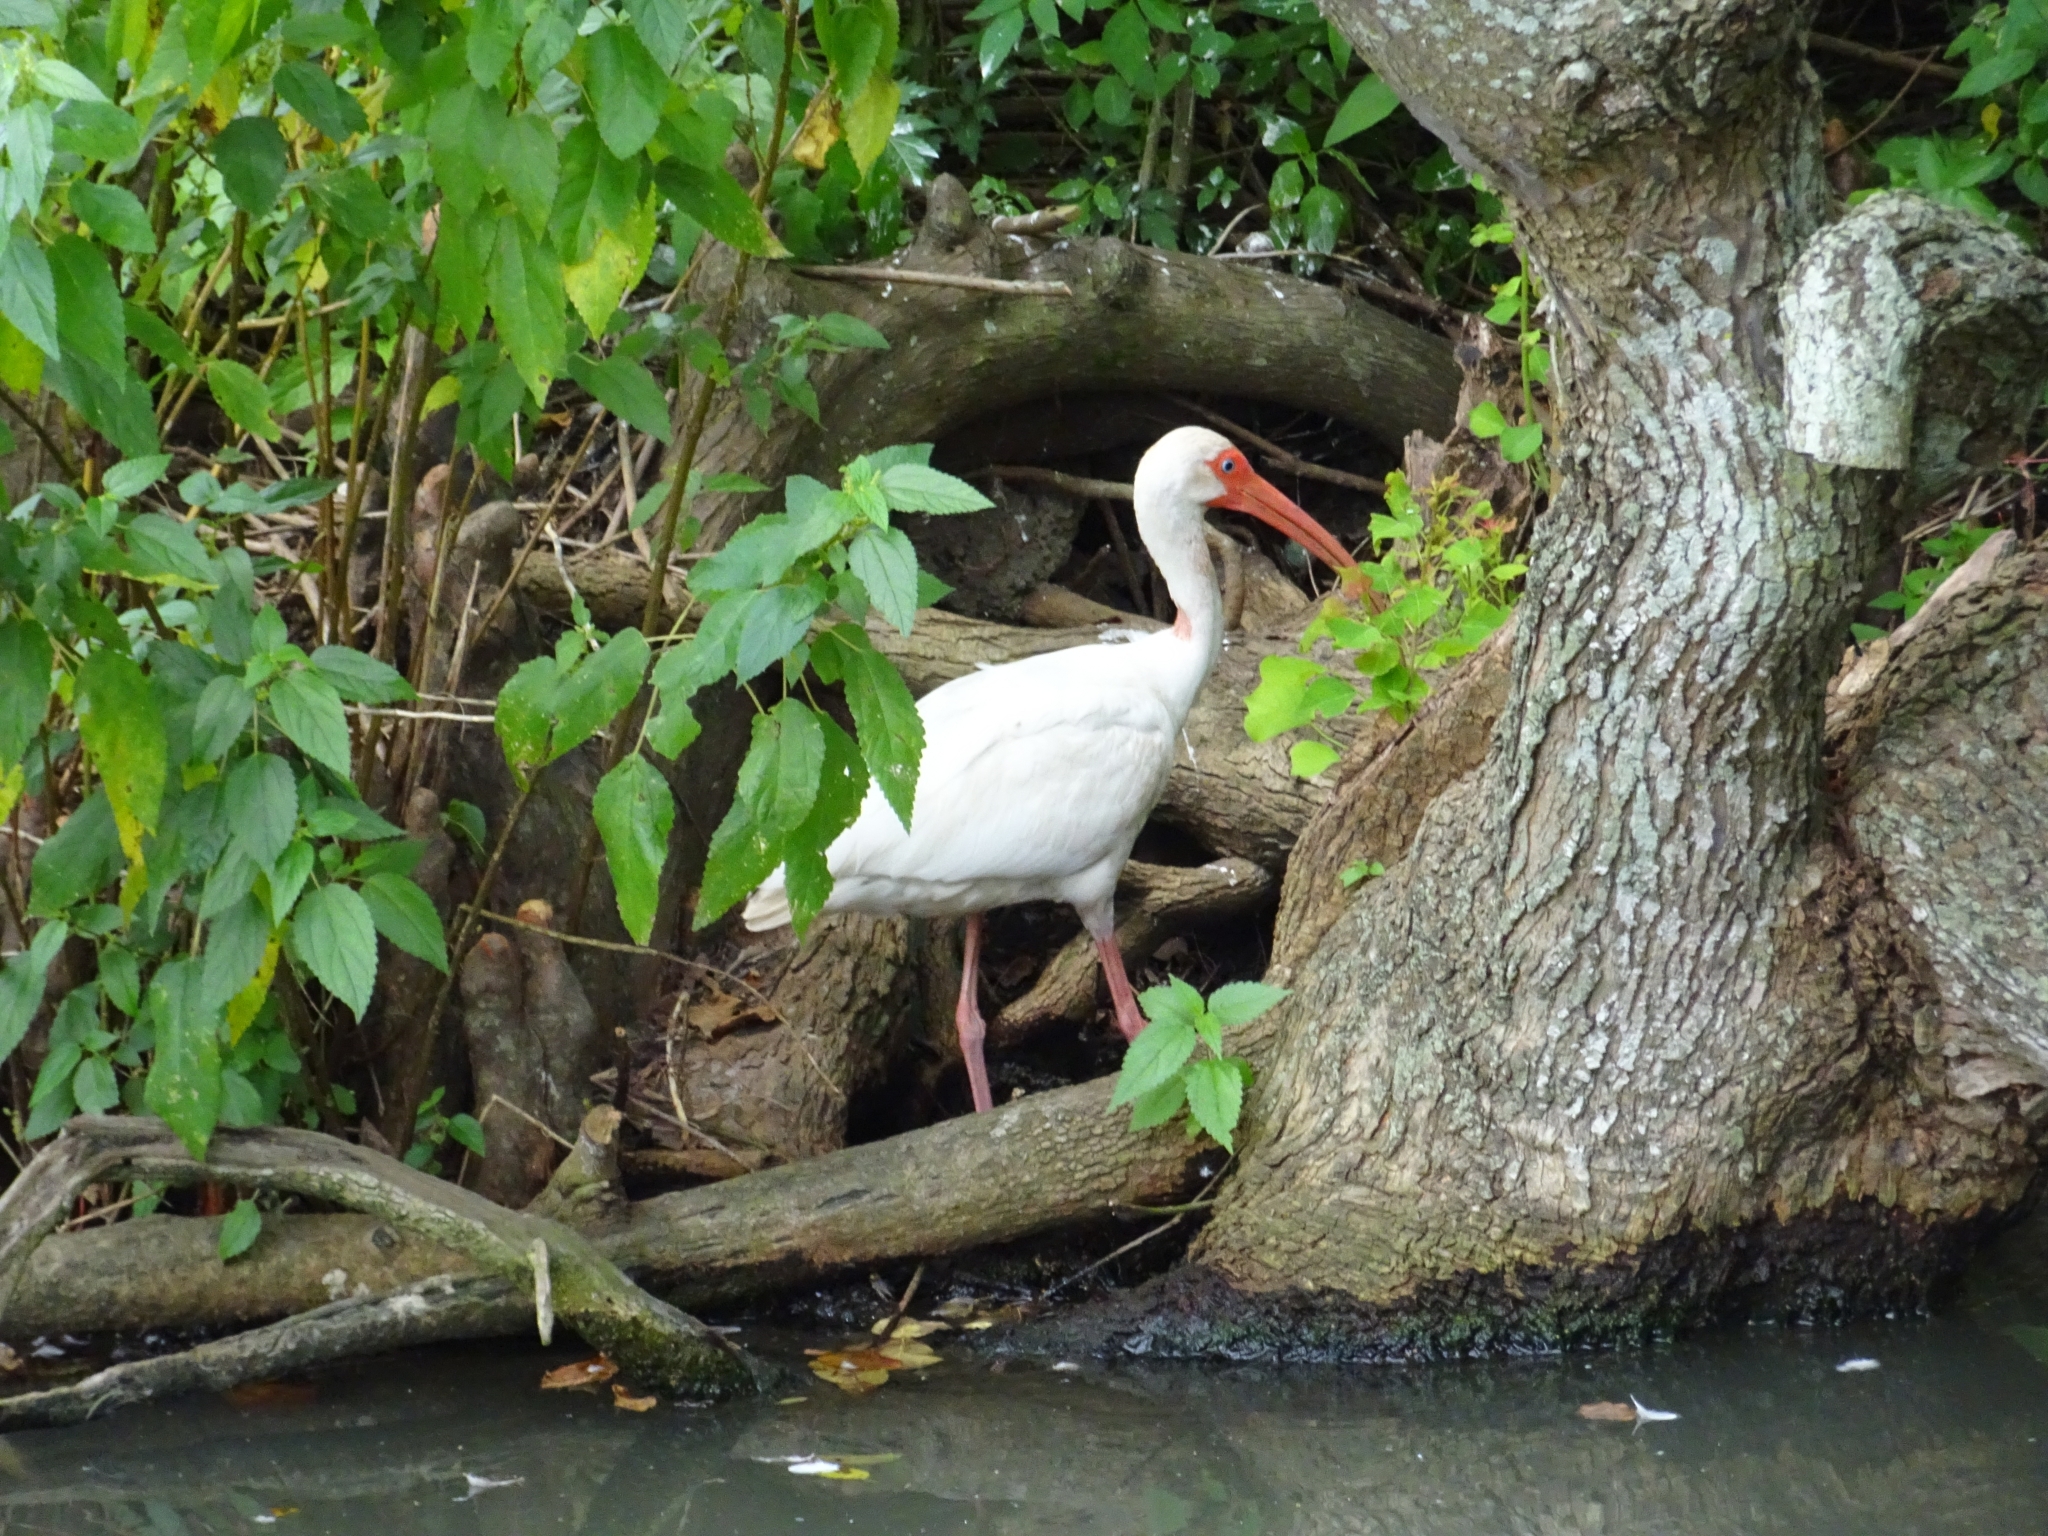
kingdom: Animalia
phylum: Chordata
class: Aves
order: Pelecaniformes
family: Threskiornithidae
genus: Eudocimus
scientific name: Eudocimus albus
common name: White ibis
